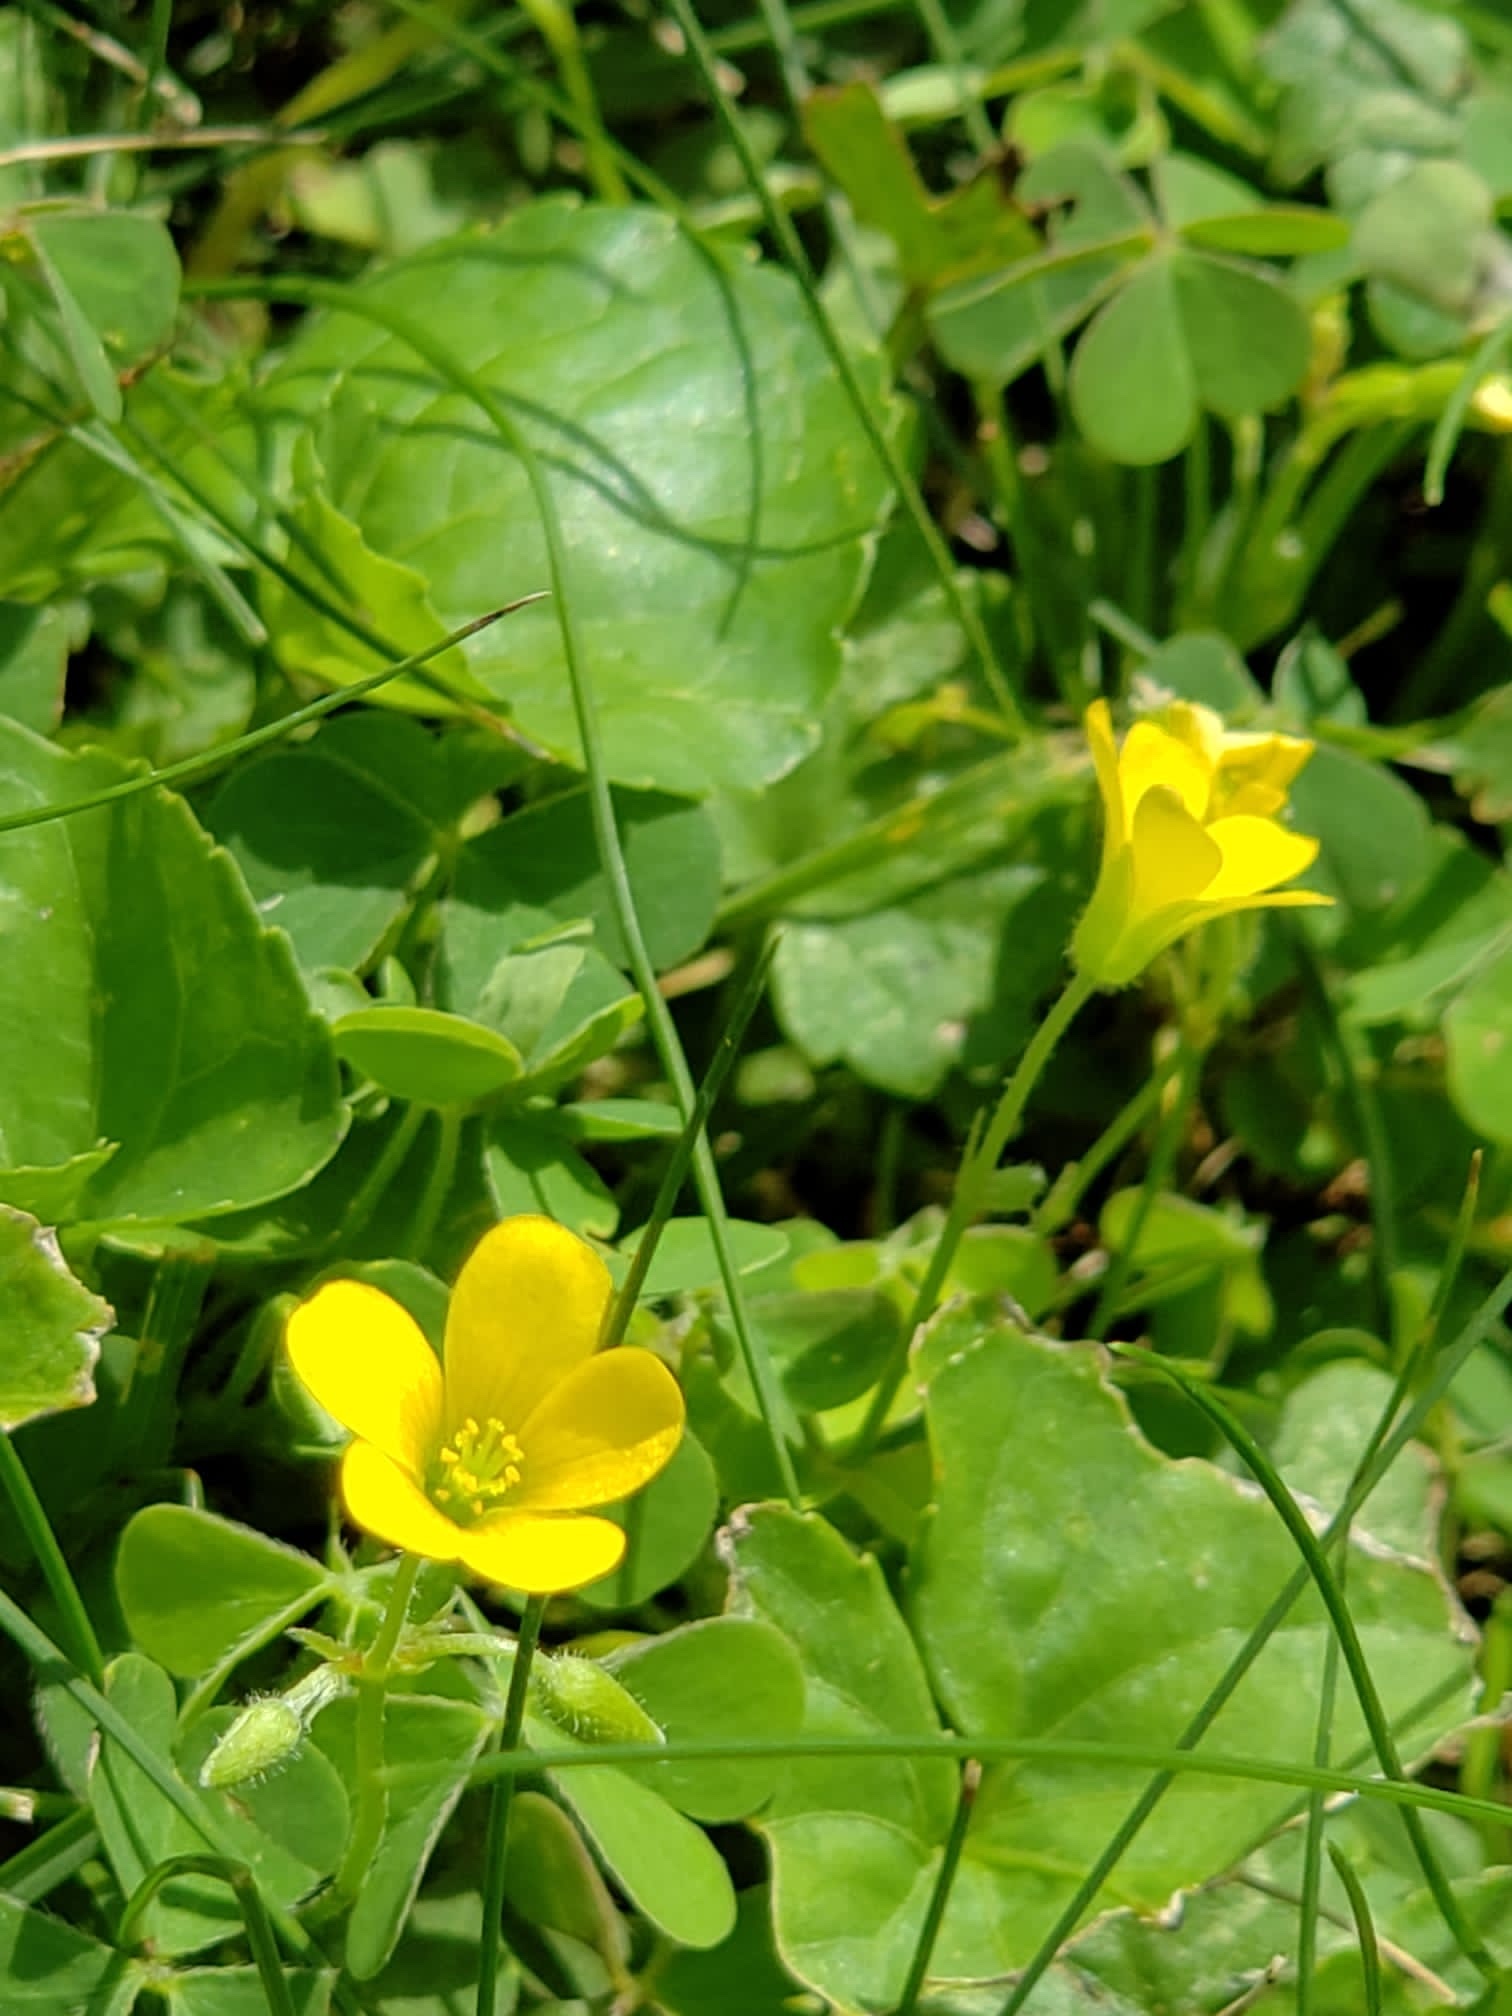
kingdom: Plantae
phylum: Tracheophyta
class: Magnoliopsida
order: Oxalidales
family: Oxalidaceae
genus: Oxalis
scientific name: Oxalis stricta
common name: Upright yellow-sorrel
